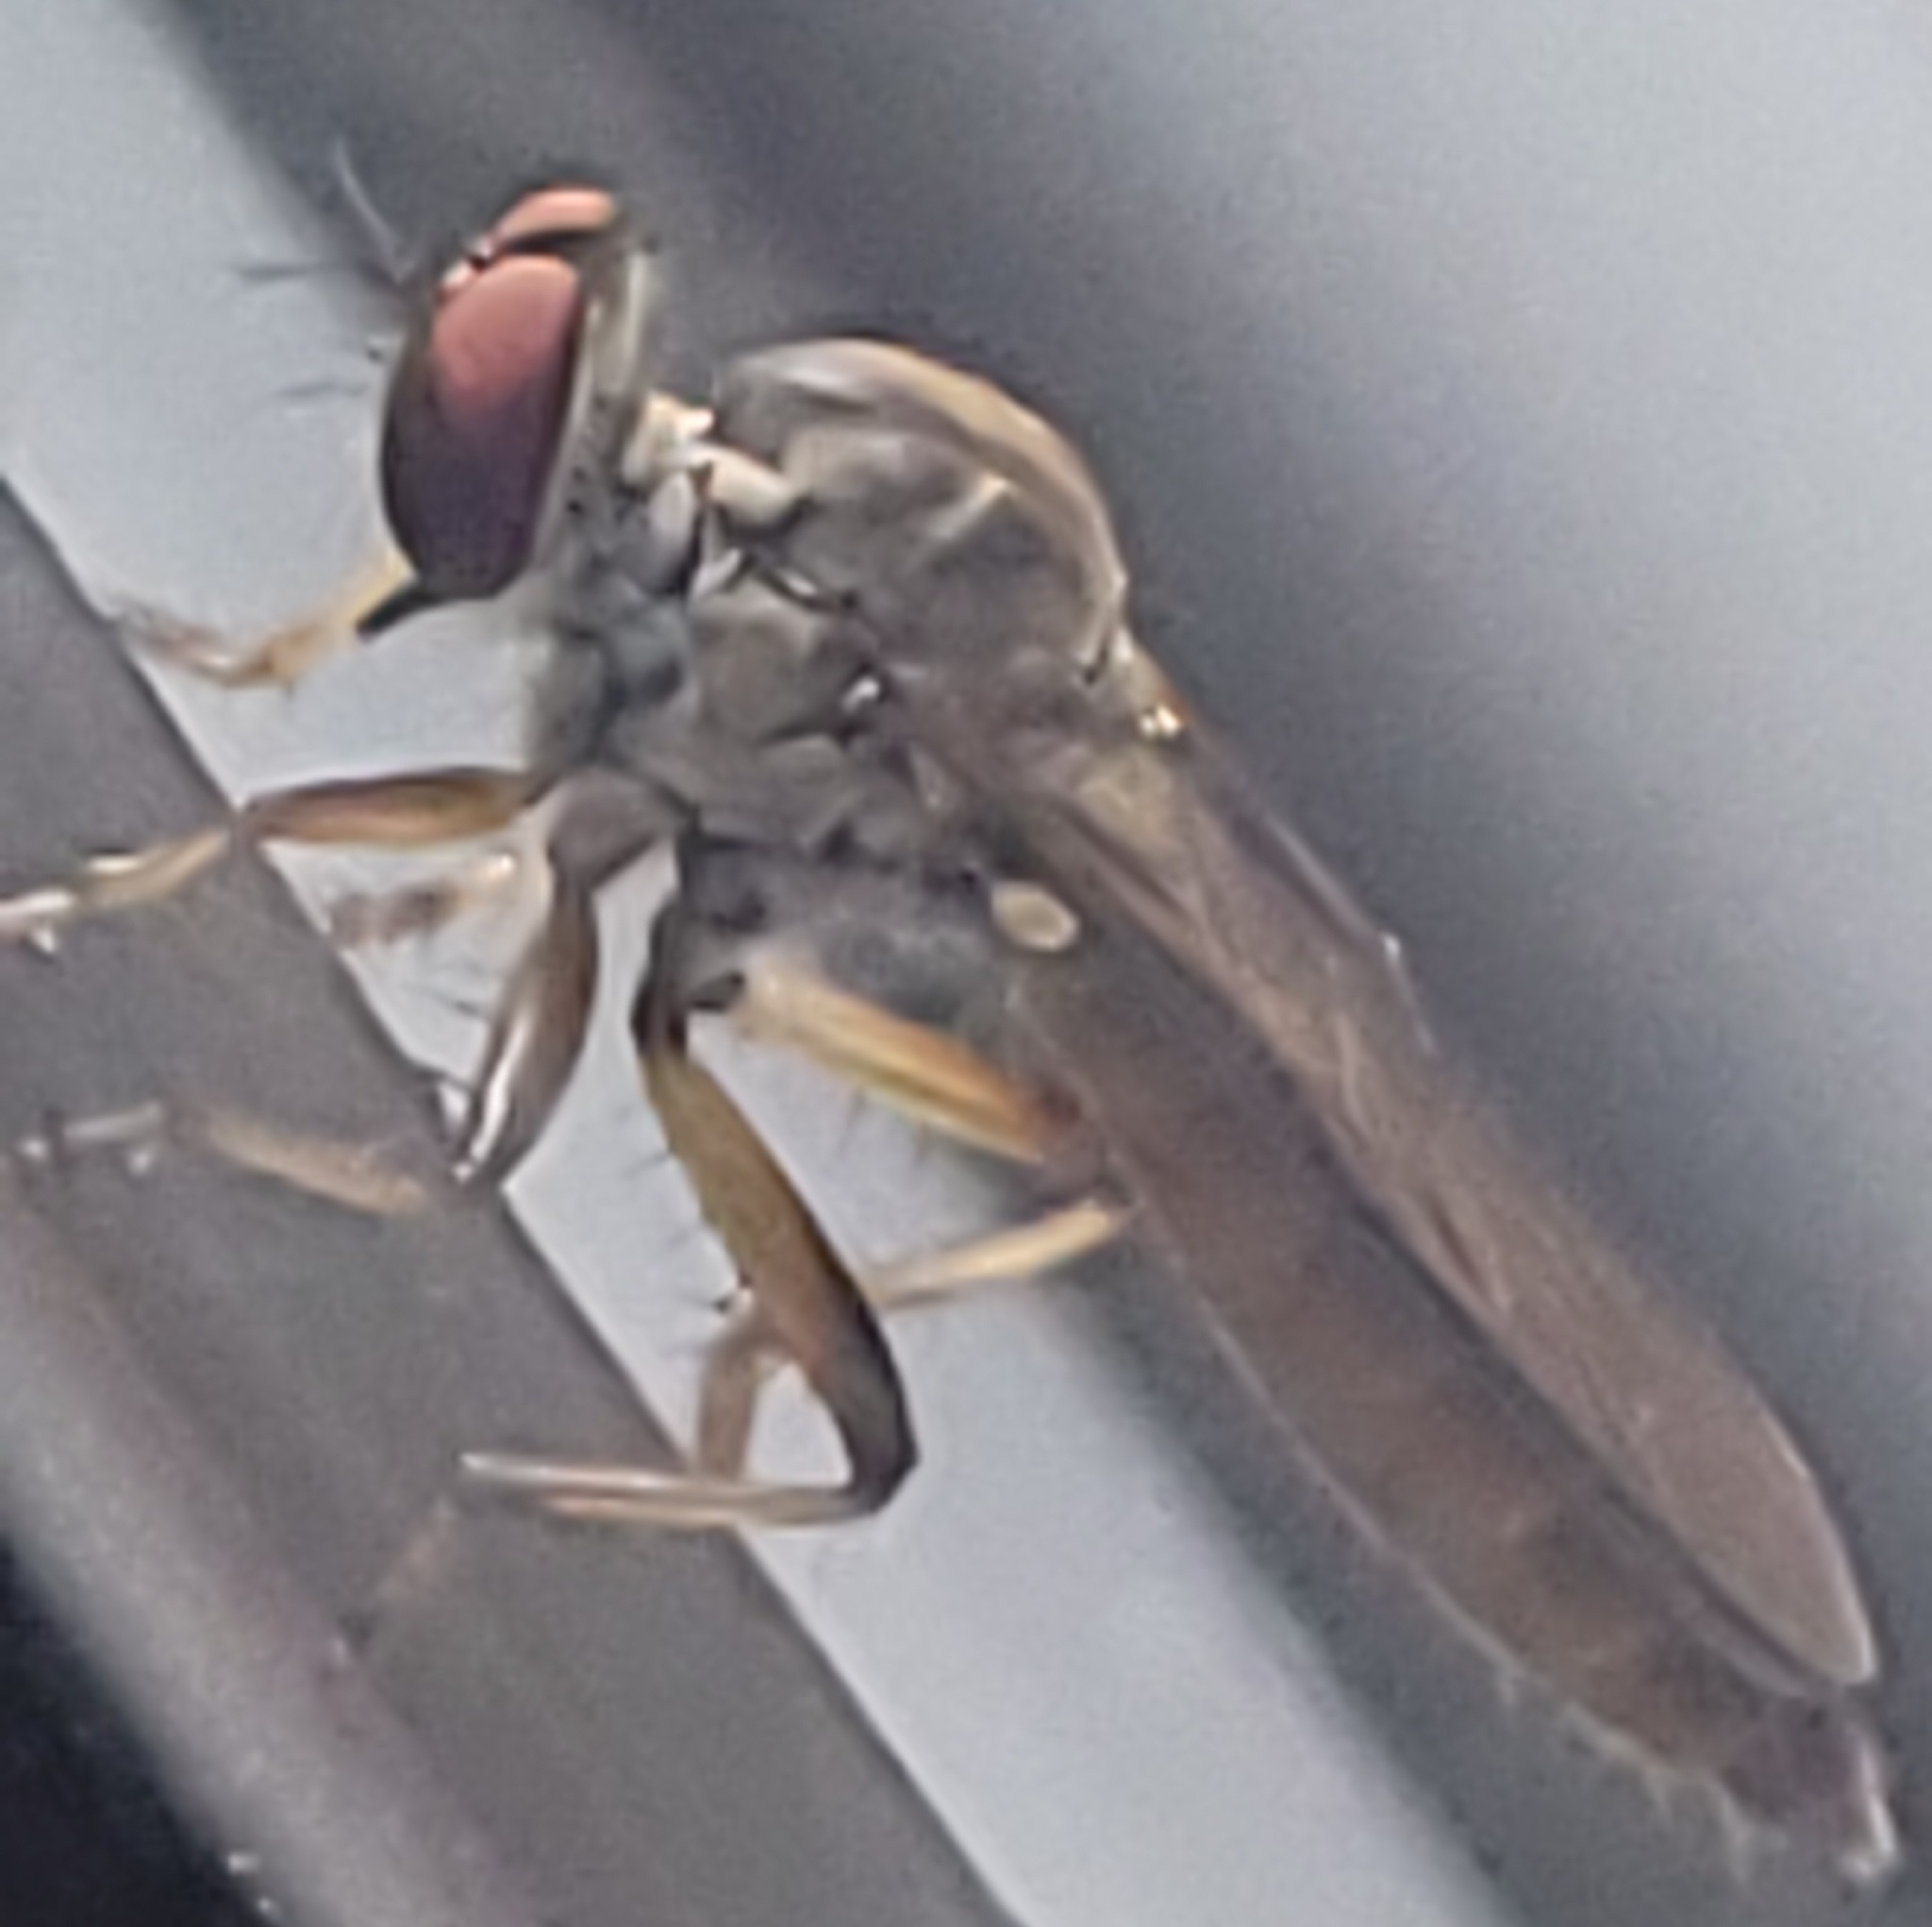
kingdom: Animalia
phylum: Arthropoda
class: Insecta
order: Diptera
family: Asilidae
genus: Ommatius
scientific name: Ommatius gemma
